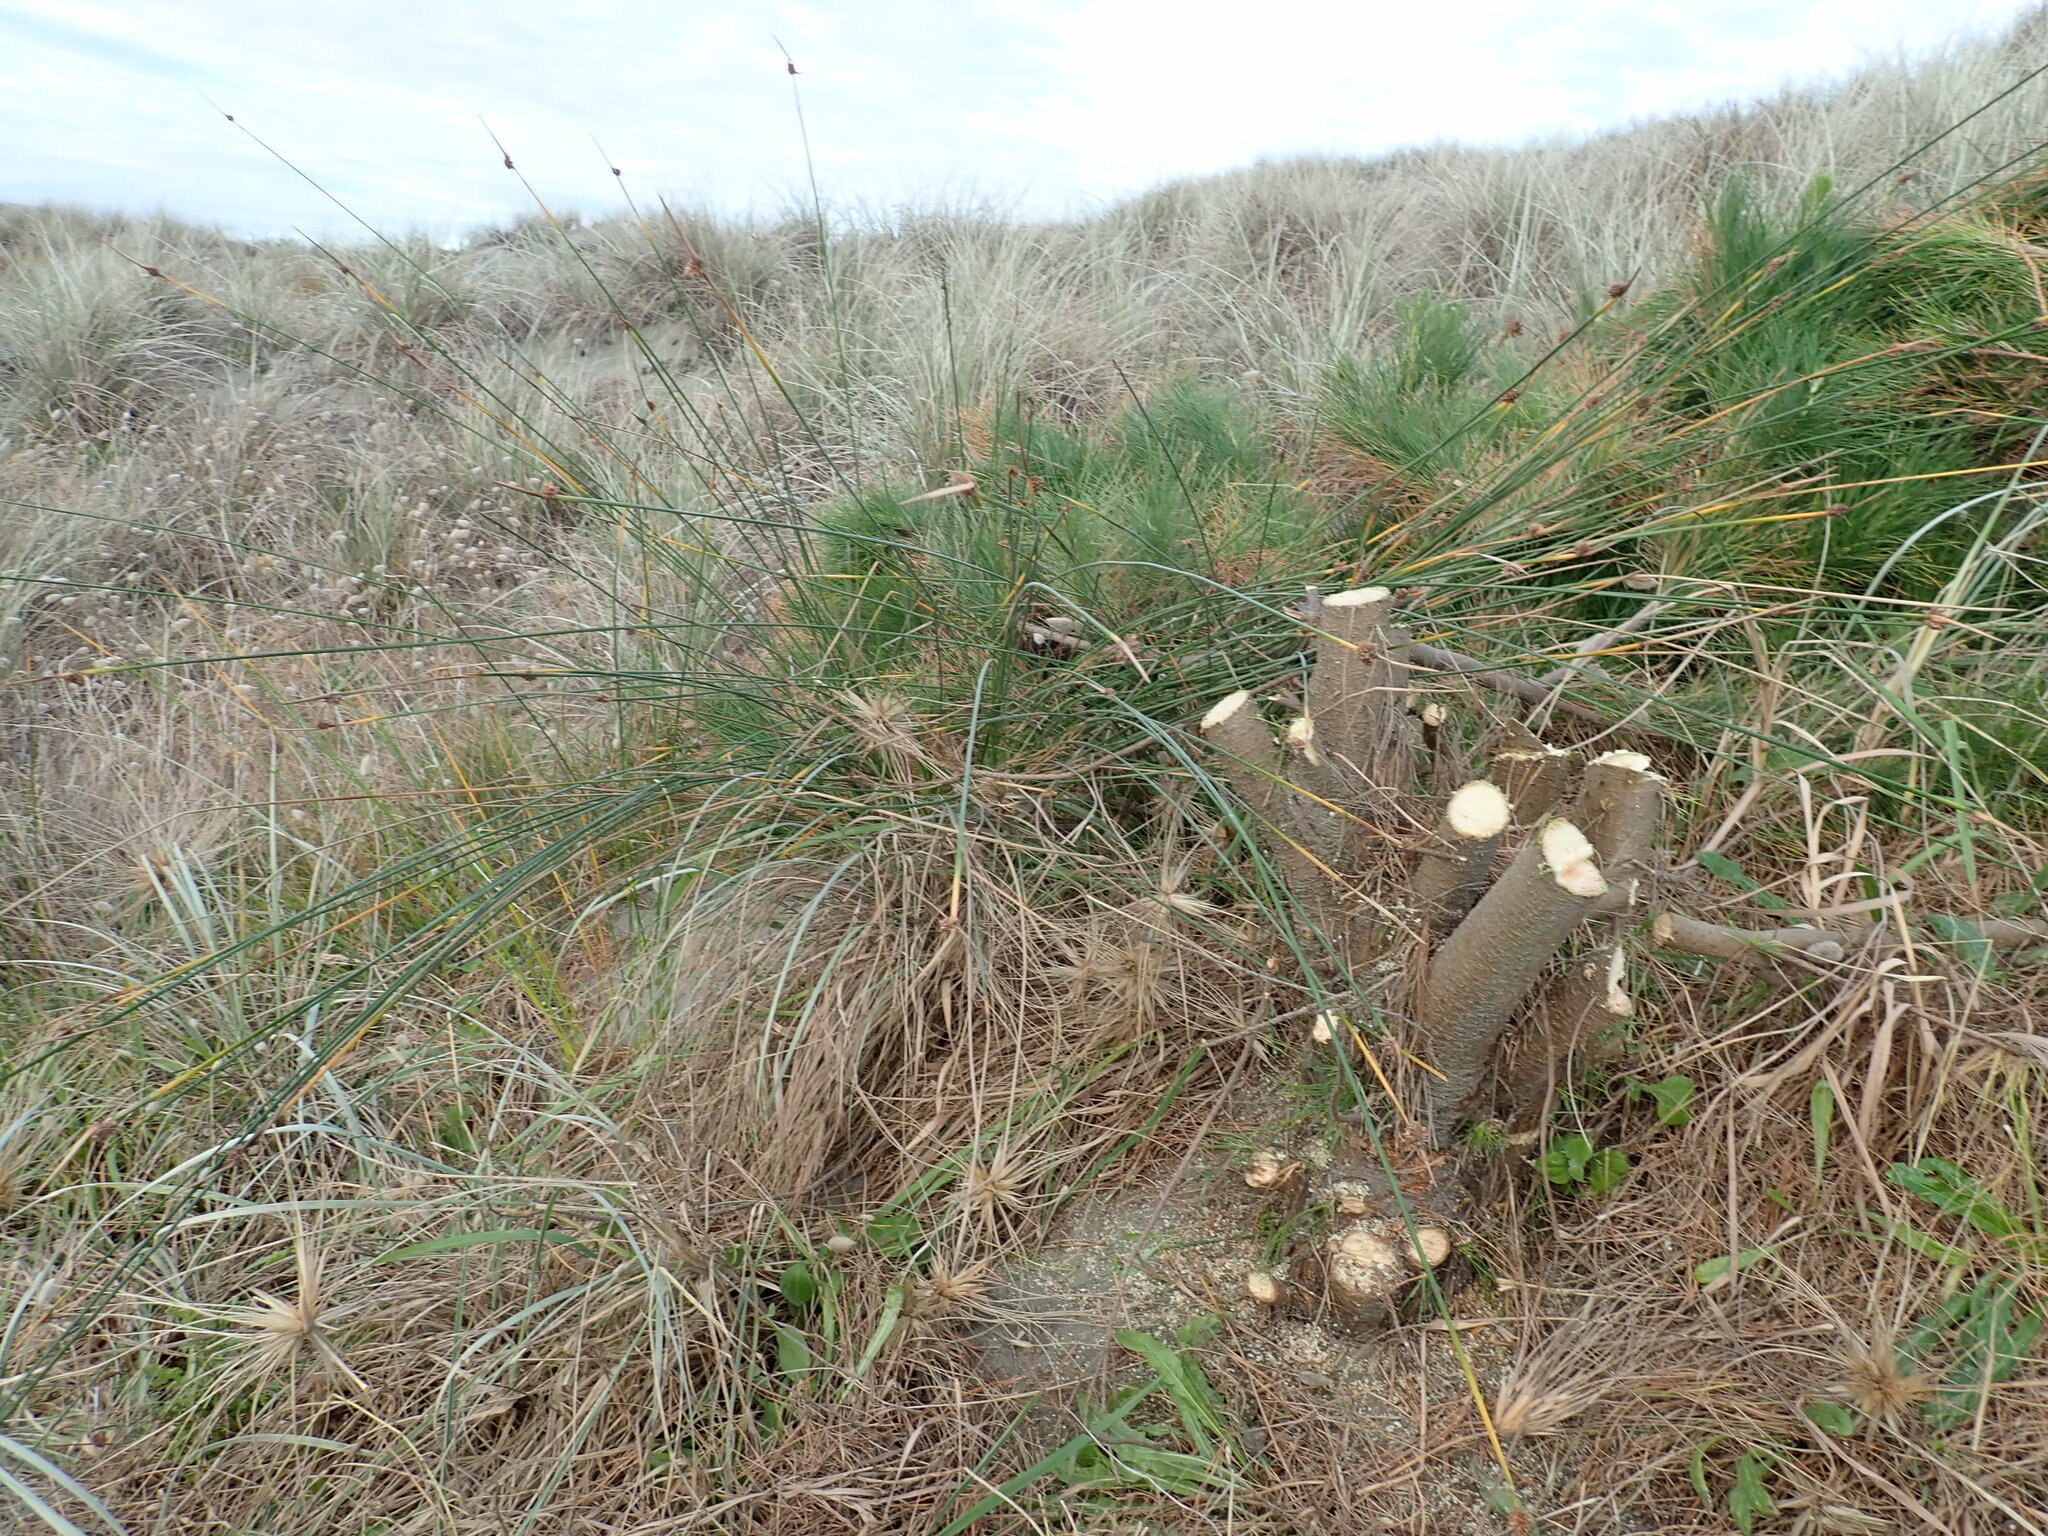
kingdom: Plantae
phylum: Tracheophyta
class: Liliopsida
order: Poales
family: Cyperaceae
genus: Ficinia
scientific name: Ficinia nodosa
